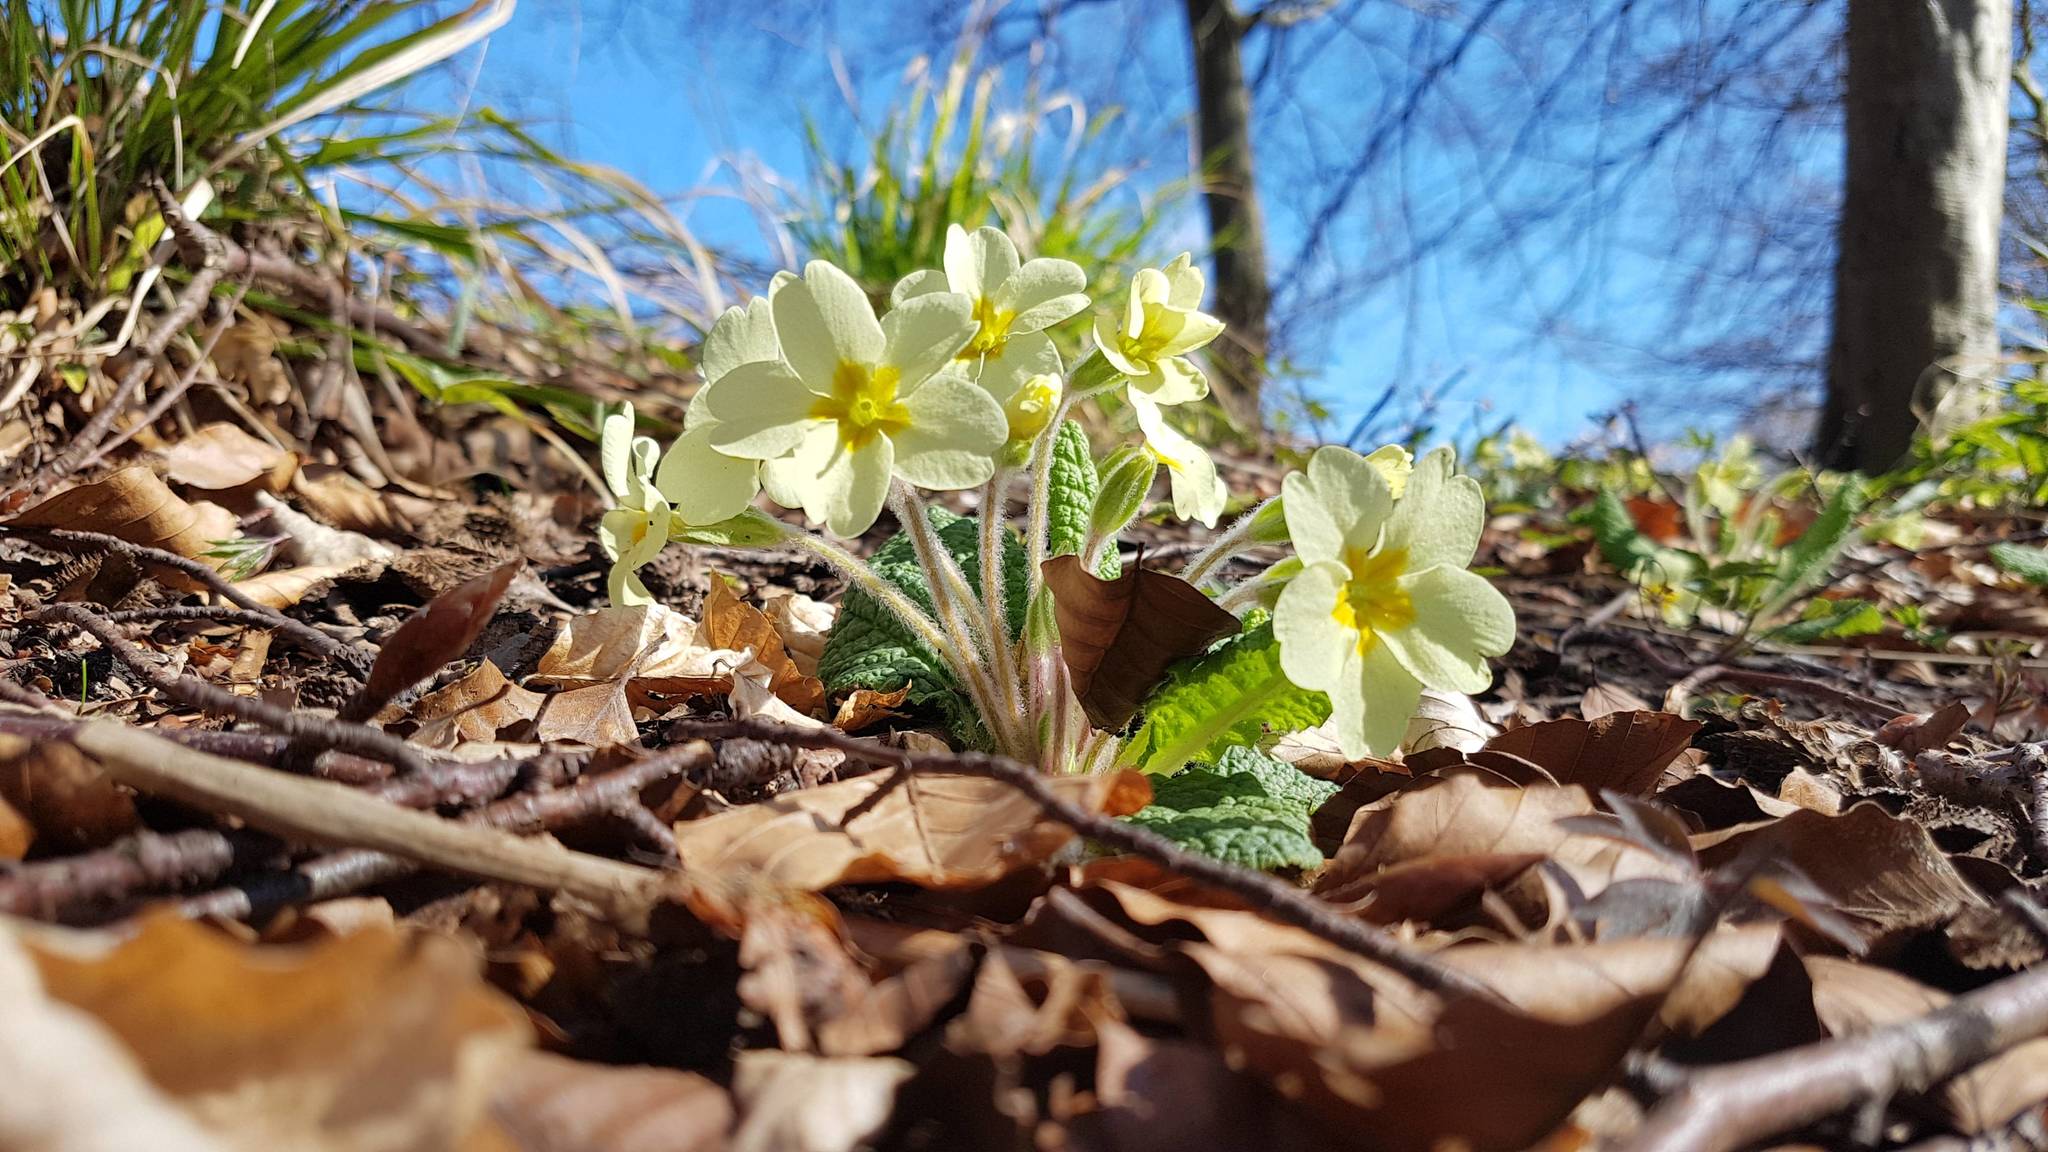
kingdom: Plantae
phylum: Tracheophyta
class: Magnoliopsida
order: Ericales
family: Primulaceae
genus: Primula
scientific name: Primula vulgaris
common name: Primrose
